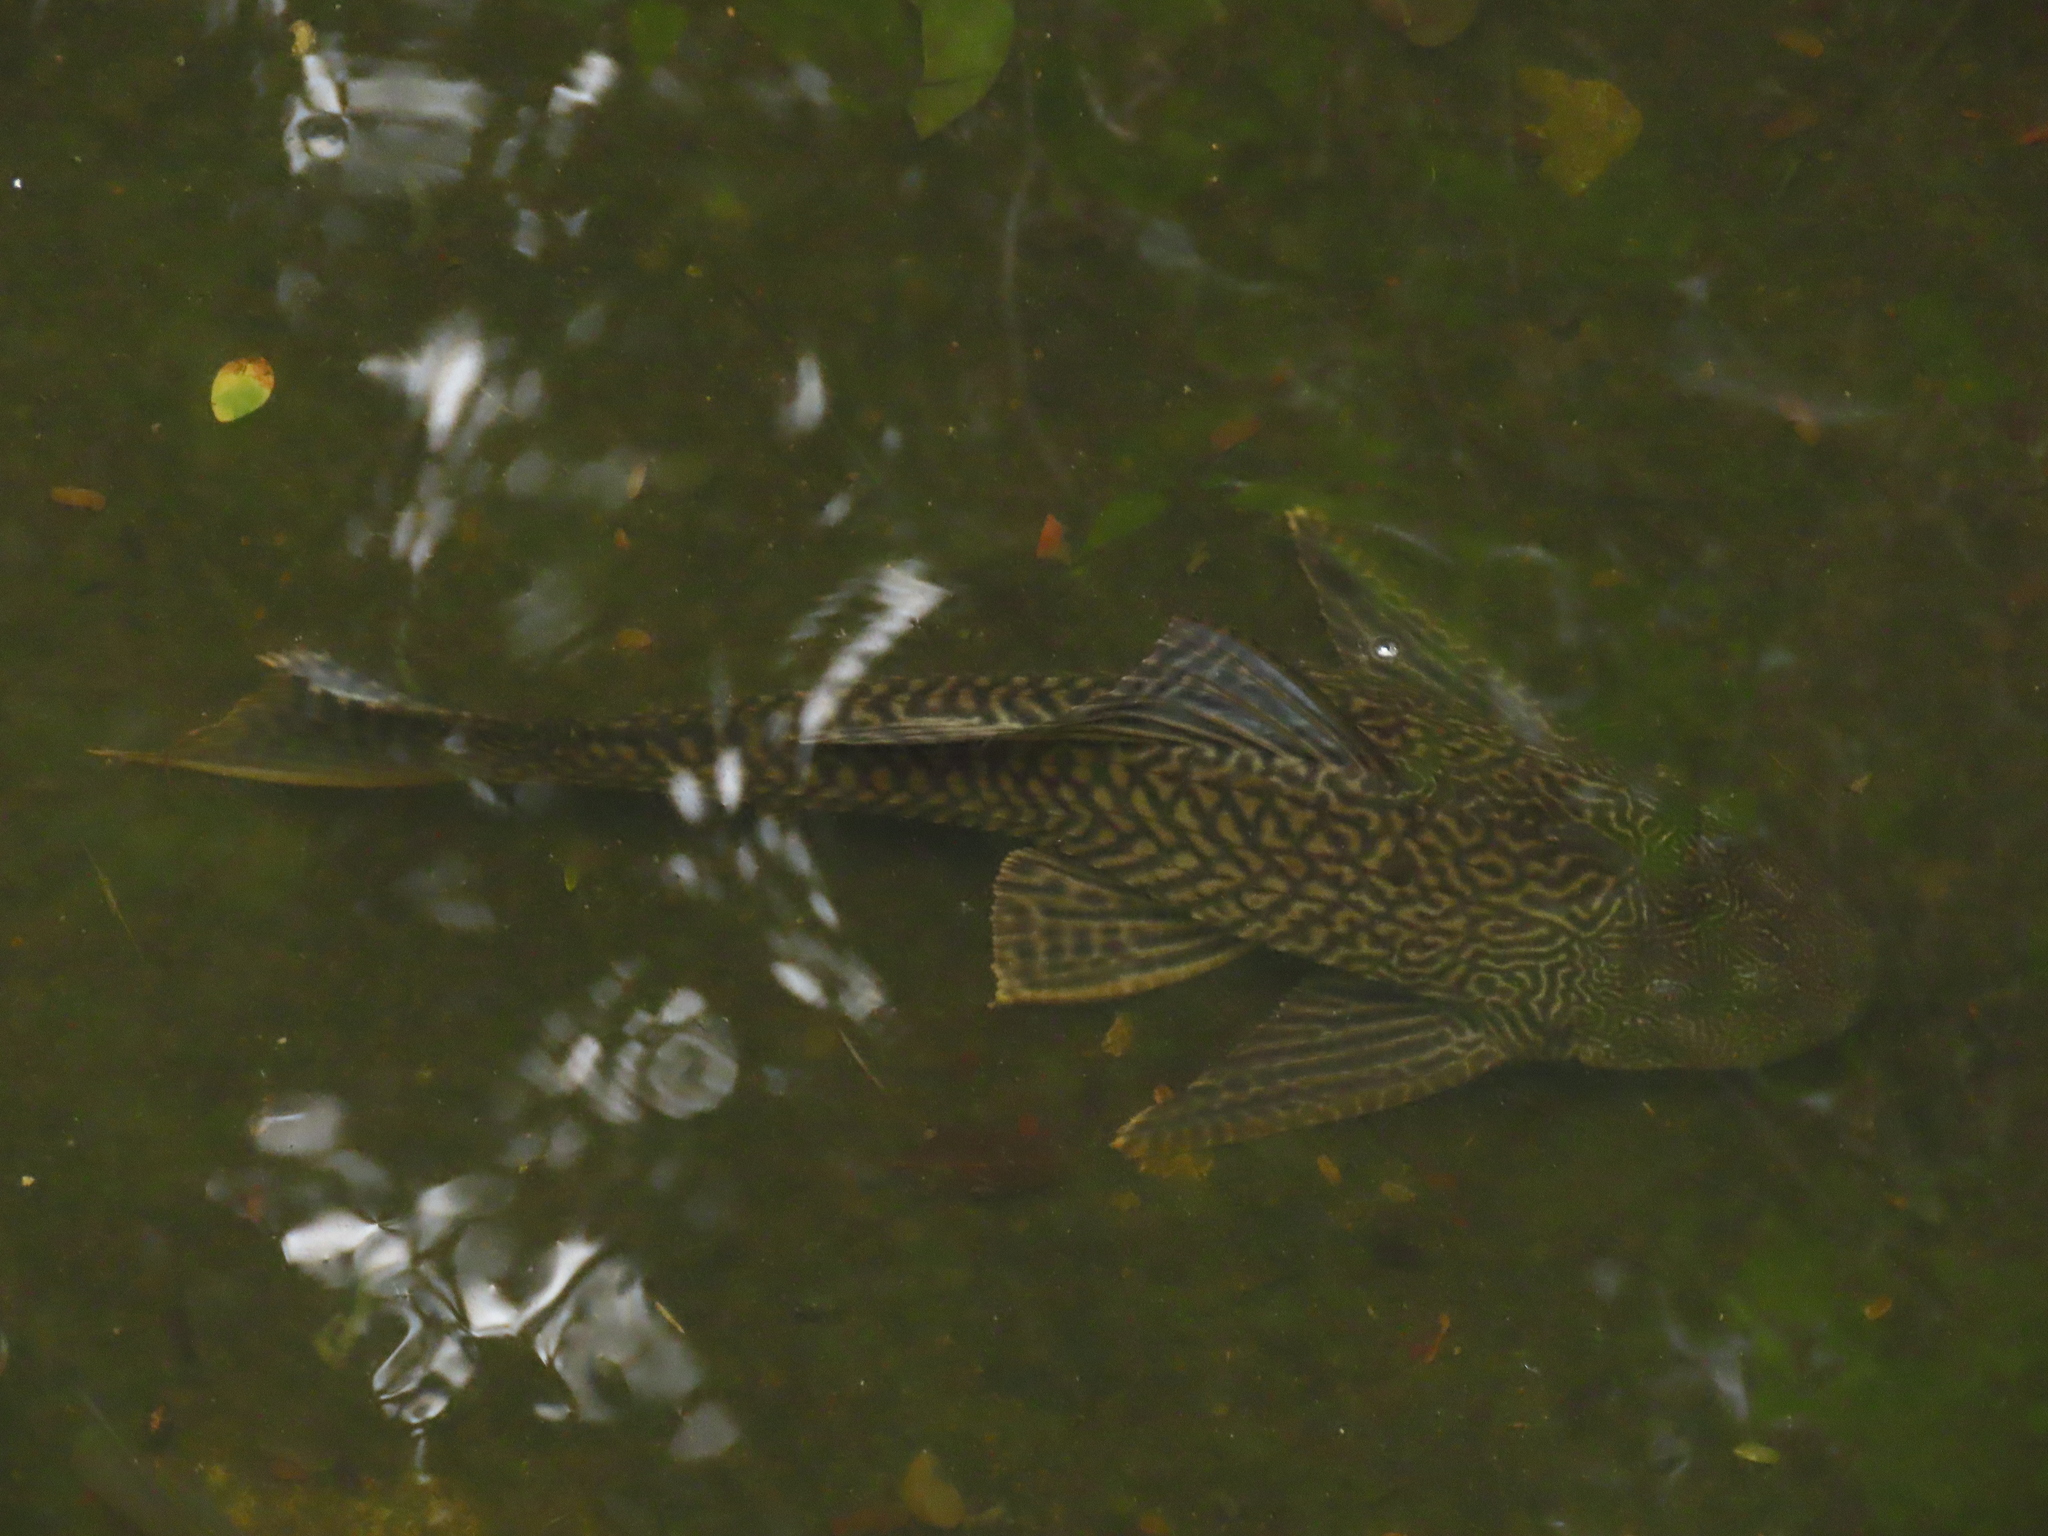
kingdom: Animalia
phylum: Chordata
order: Siluriformes
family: Loricariidae
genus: Pterygoplichthys
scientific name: Pterygoplichthys
